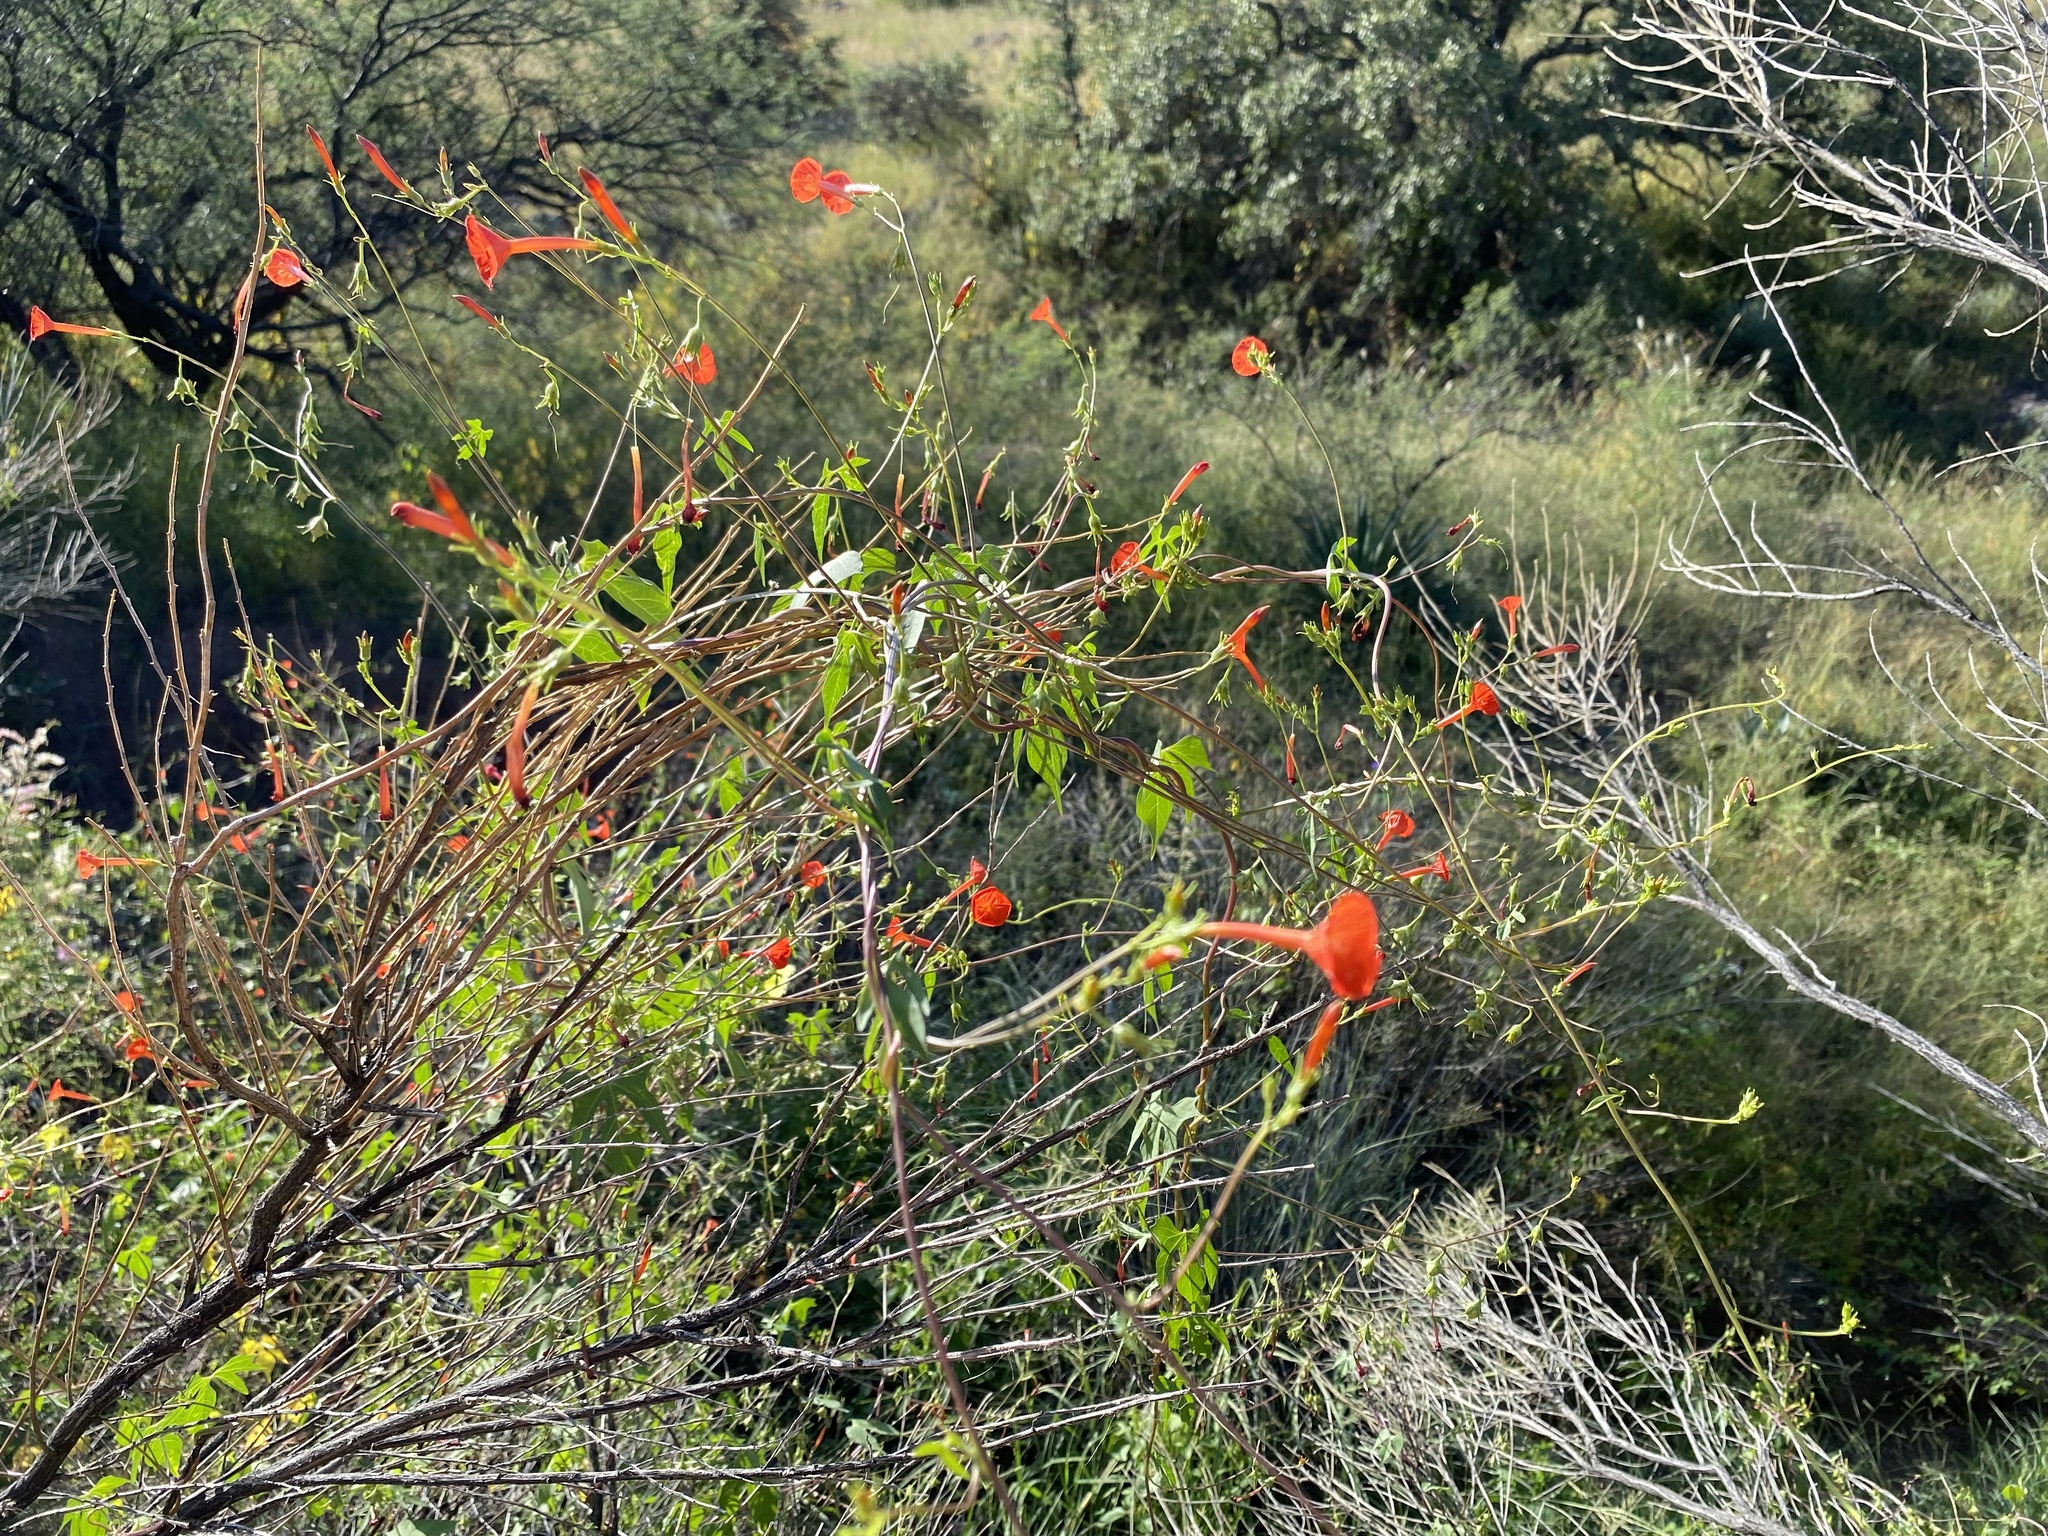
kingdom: Plantae
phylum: Tracheophyta
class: Magnoliopsida
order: Solanales
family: Convolvulaceae
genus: Ipomoea
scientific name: Ipomoea cristulata
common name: Trans-pecos morning-glory
